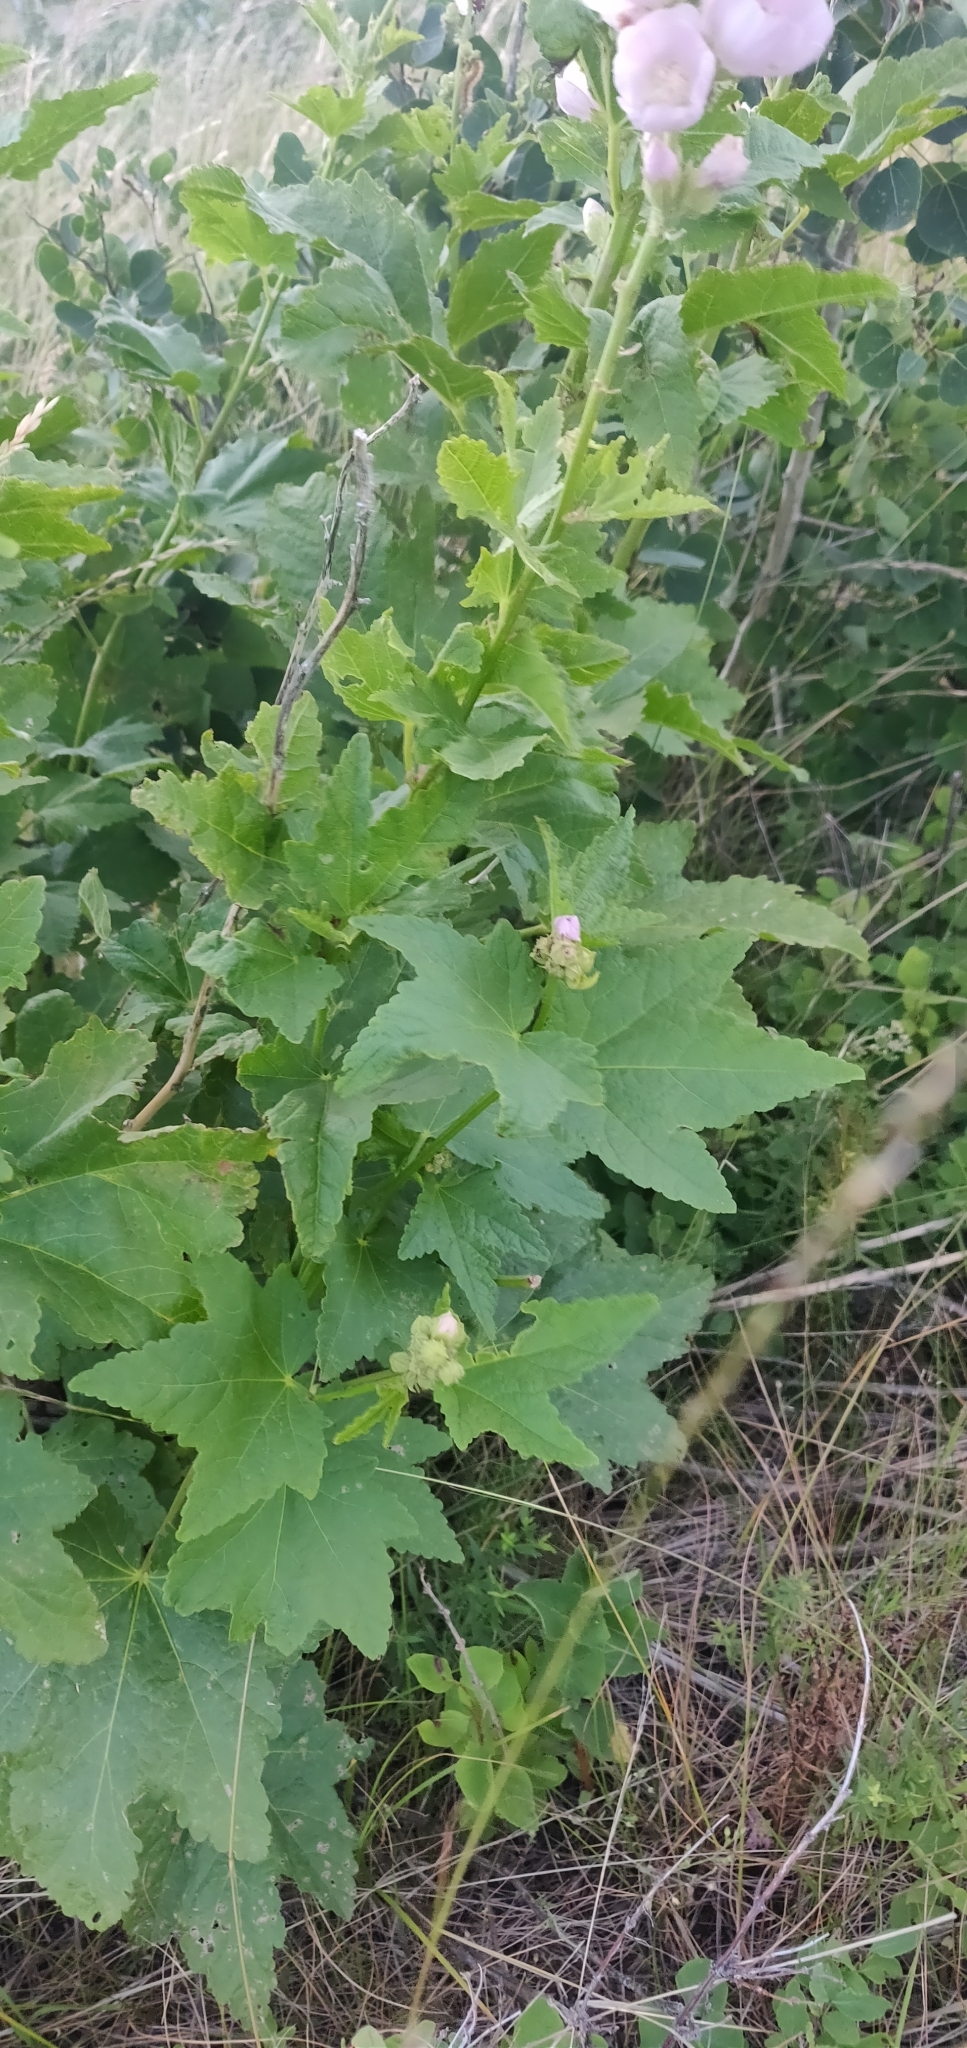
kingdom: Plantae
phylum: Tracheophyta
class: Magnoliopsida
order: Malvales
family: Malvaceae
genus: Iliamna
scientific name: Iliamna rivularis
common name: Wild hollyhock
